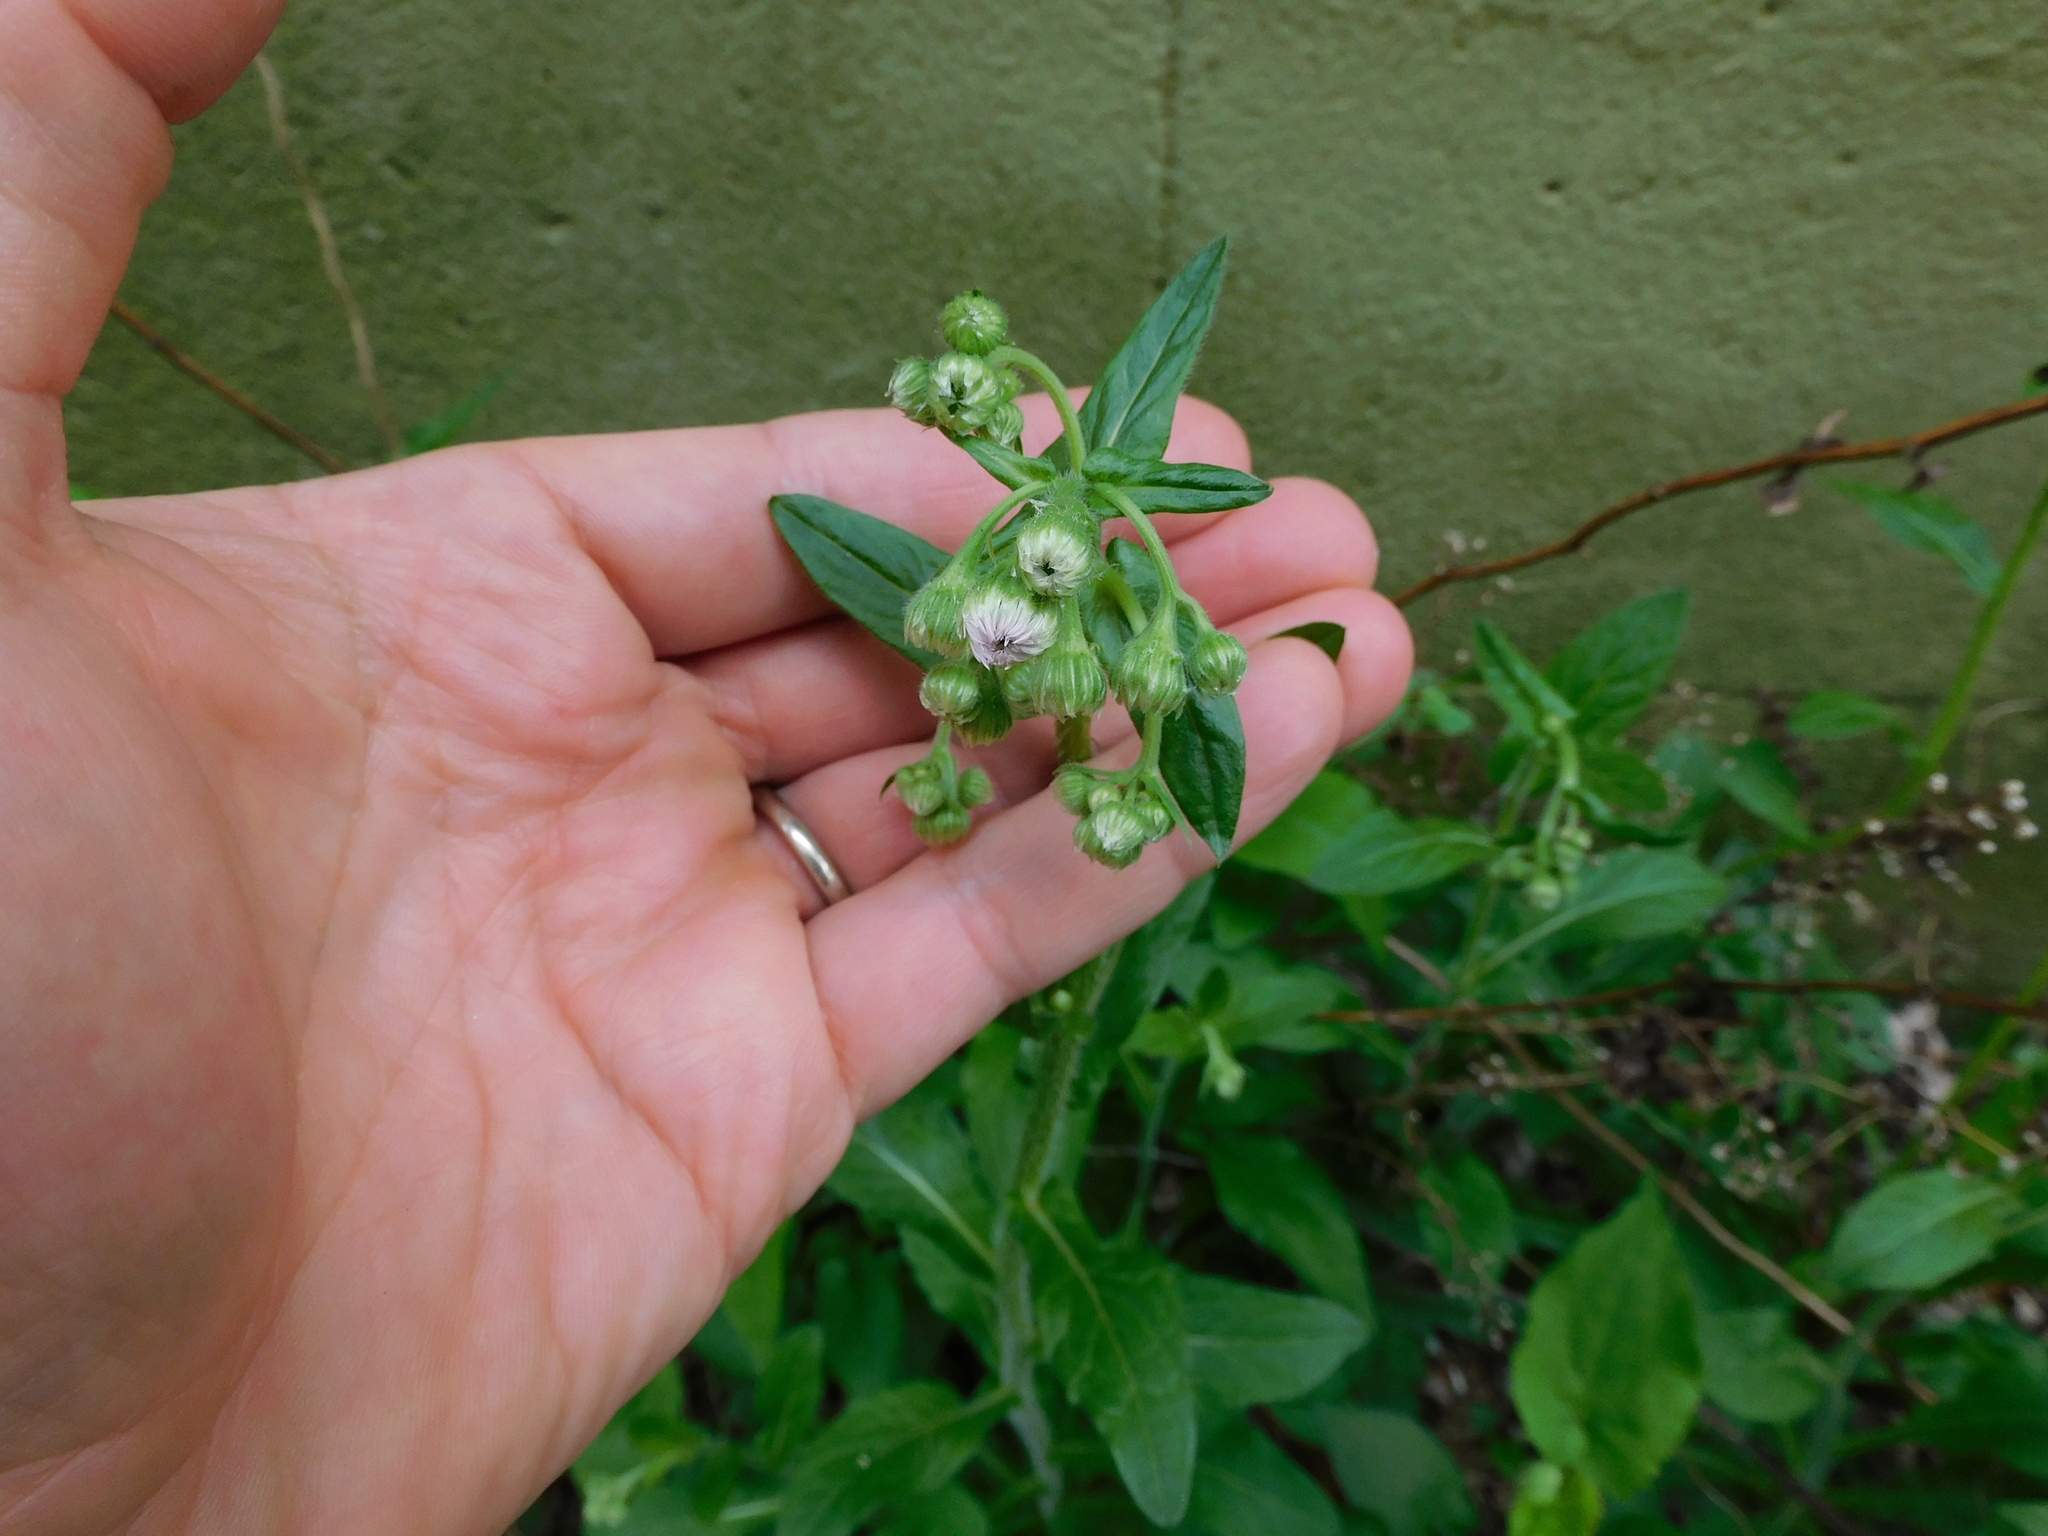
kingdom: Plantae
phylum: Tracheophyta
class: Magnoliopsida
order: Asterales
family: Asteraceae
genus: Erigeron
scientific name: Erigeron philadelphicus
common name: Robin's-plantain
